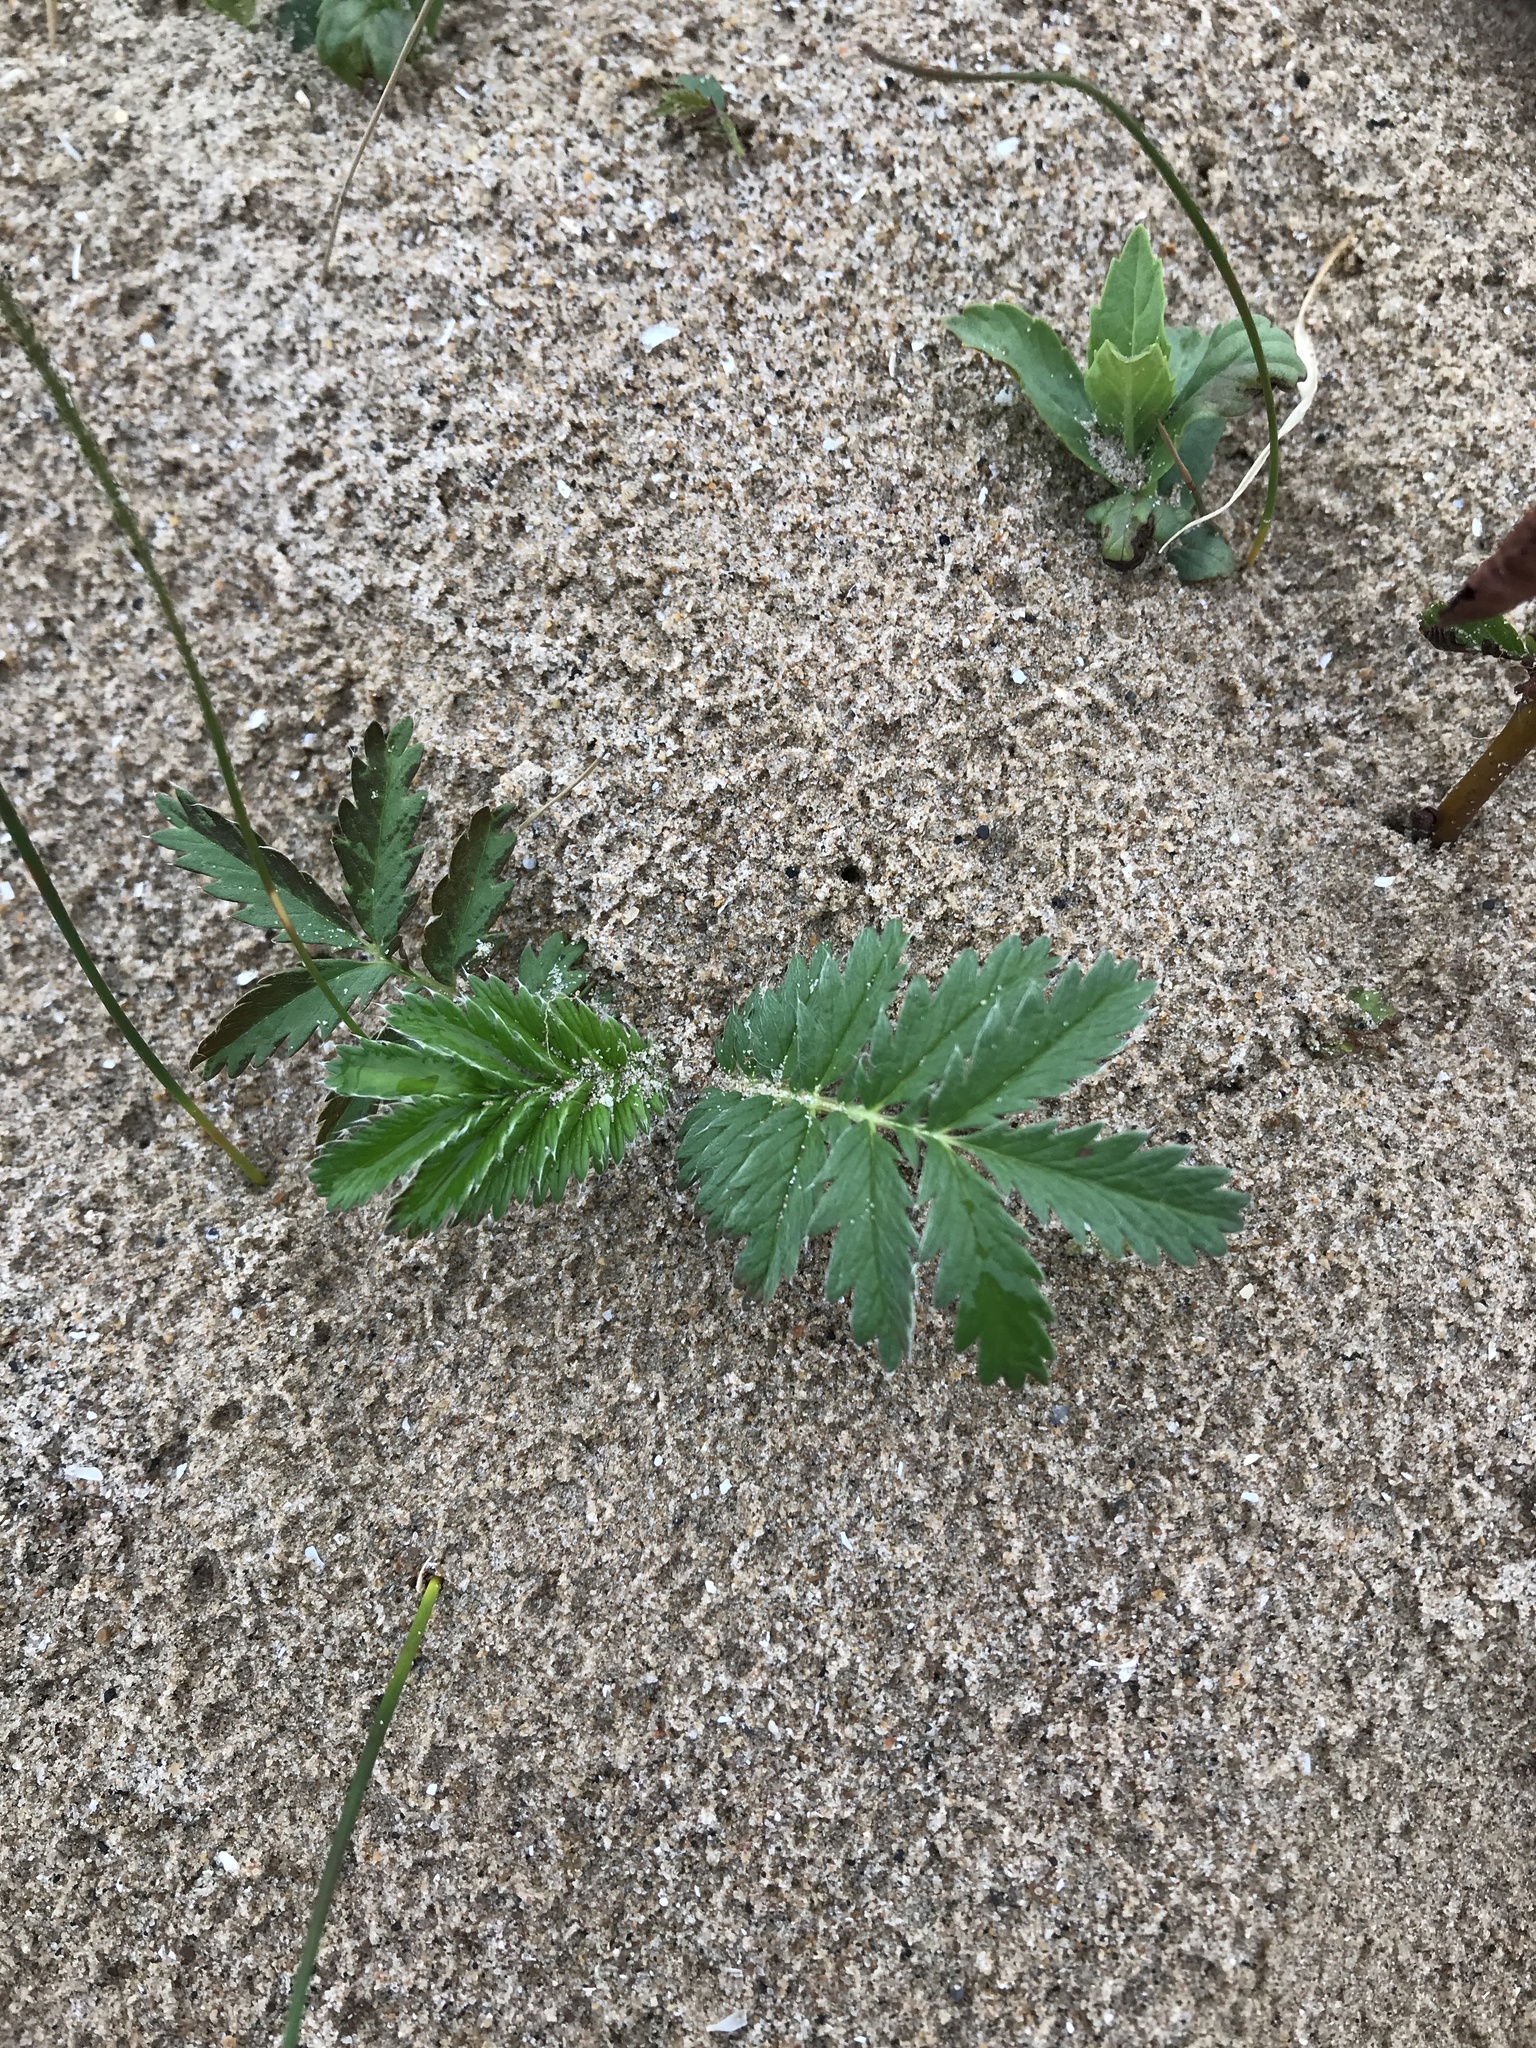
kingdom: Plantae
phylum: Tracheophyta
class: Magnoliopsida
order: Rosales
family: Rosaceae
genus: Argentina
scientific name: Argentina anserina
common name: Common silverweed
